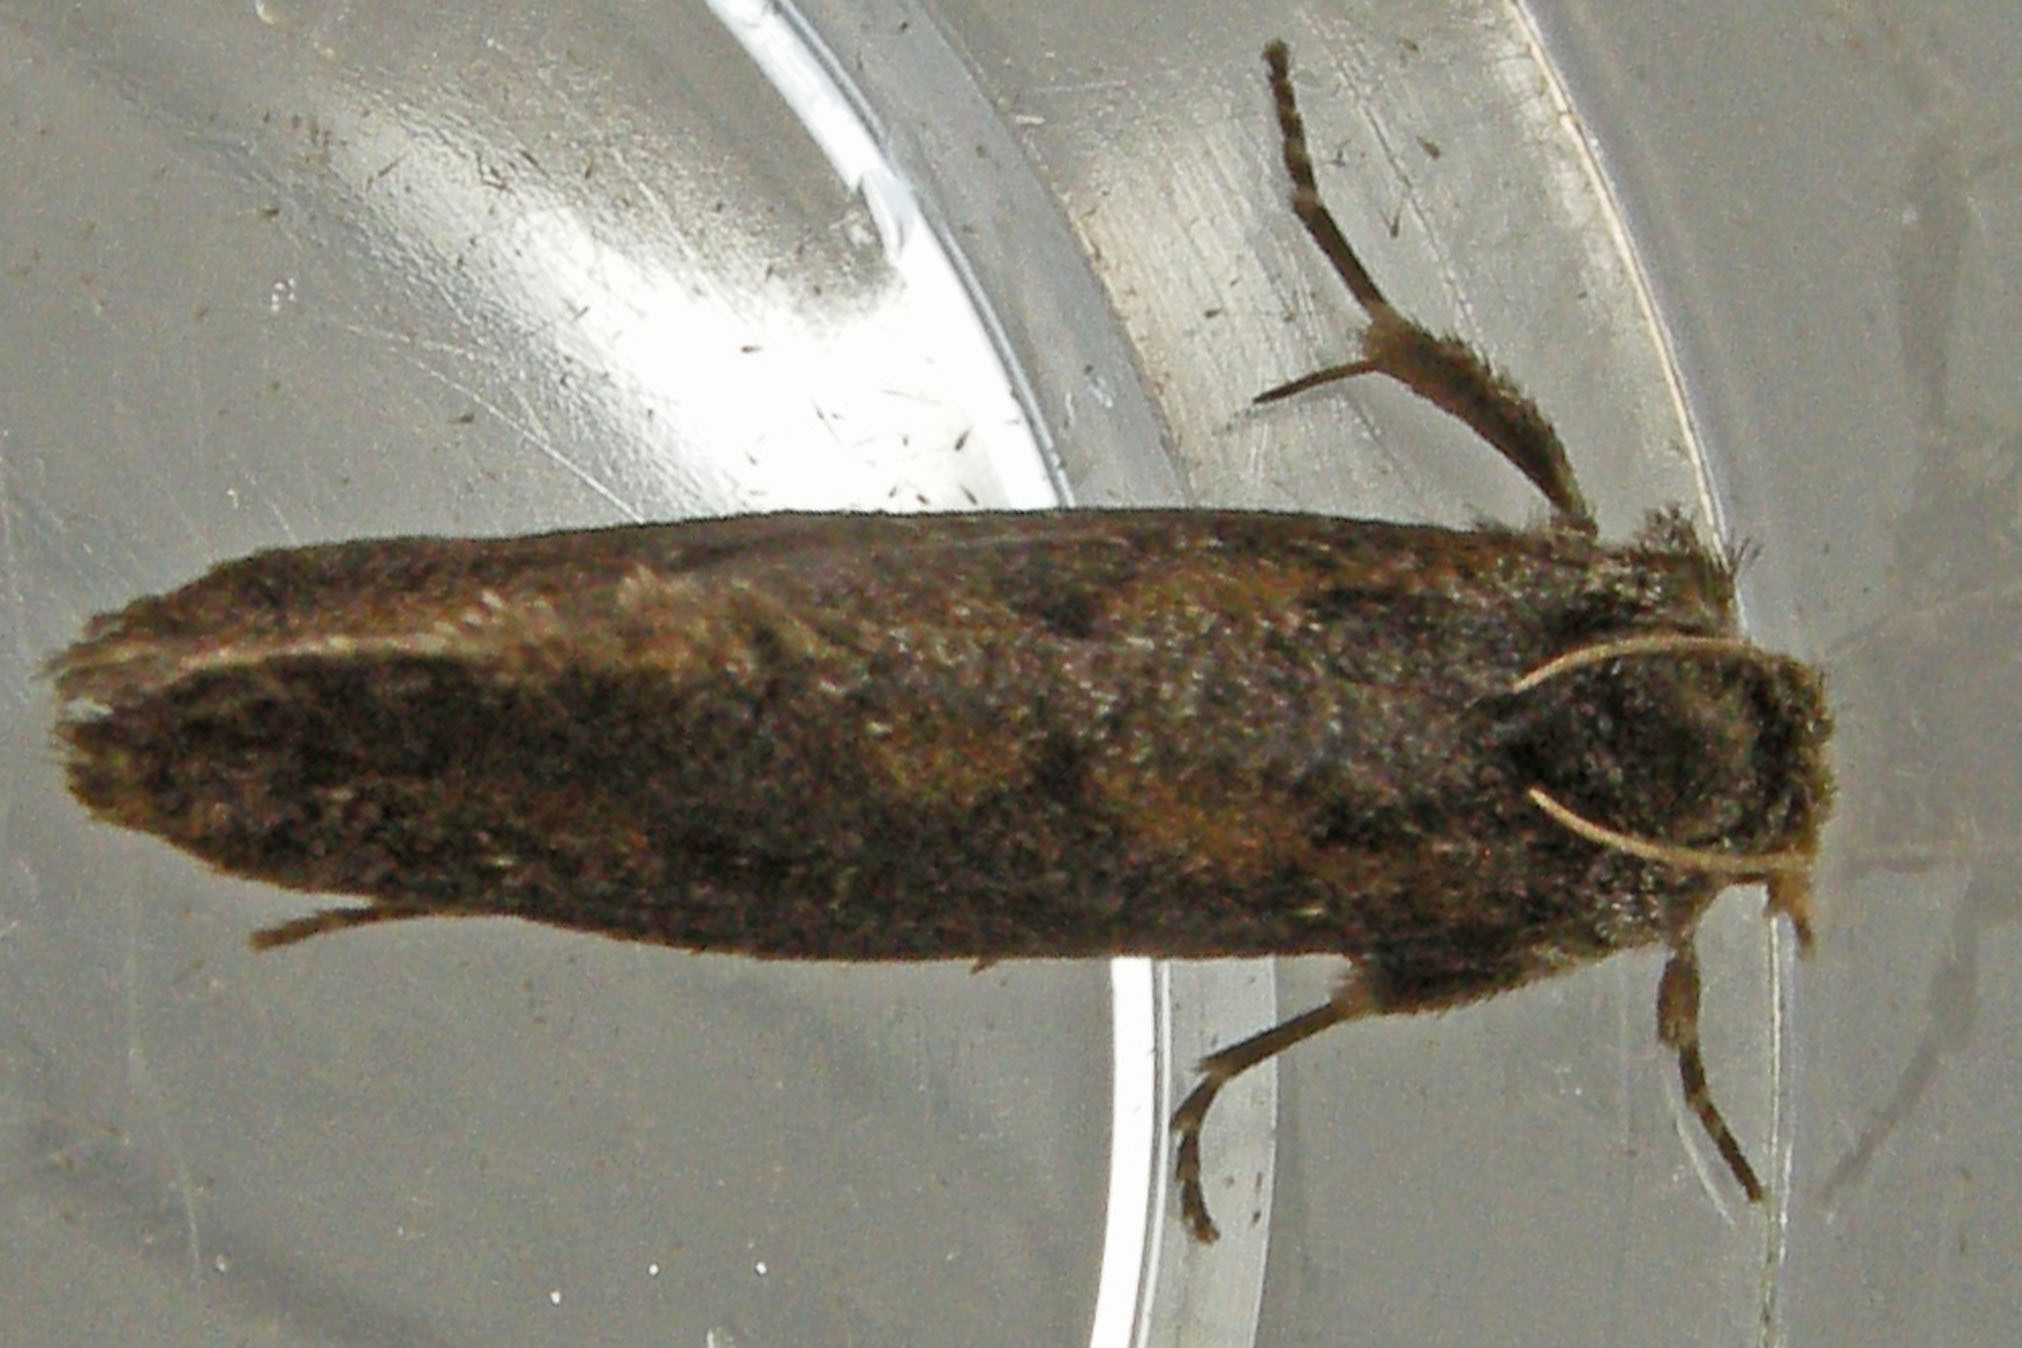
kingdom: Animalia
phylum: Arthropoda
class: Insecta
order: Lepidoptera
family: Tineidae
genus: Acrolophus
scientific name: Acrolophus popeanella
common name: Clemens' grass tubeworm moth
